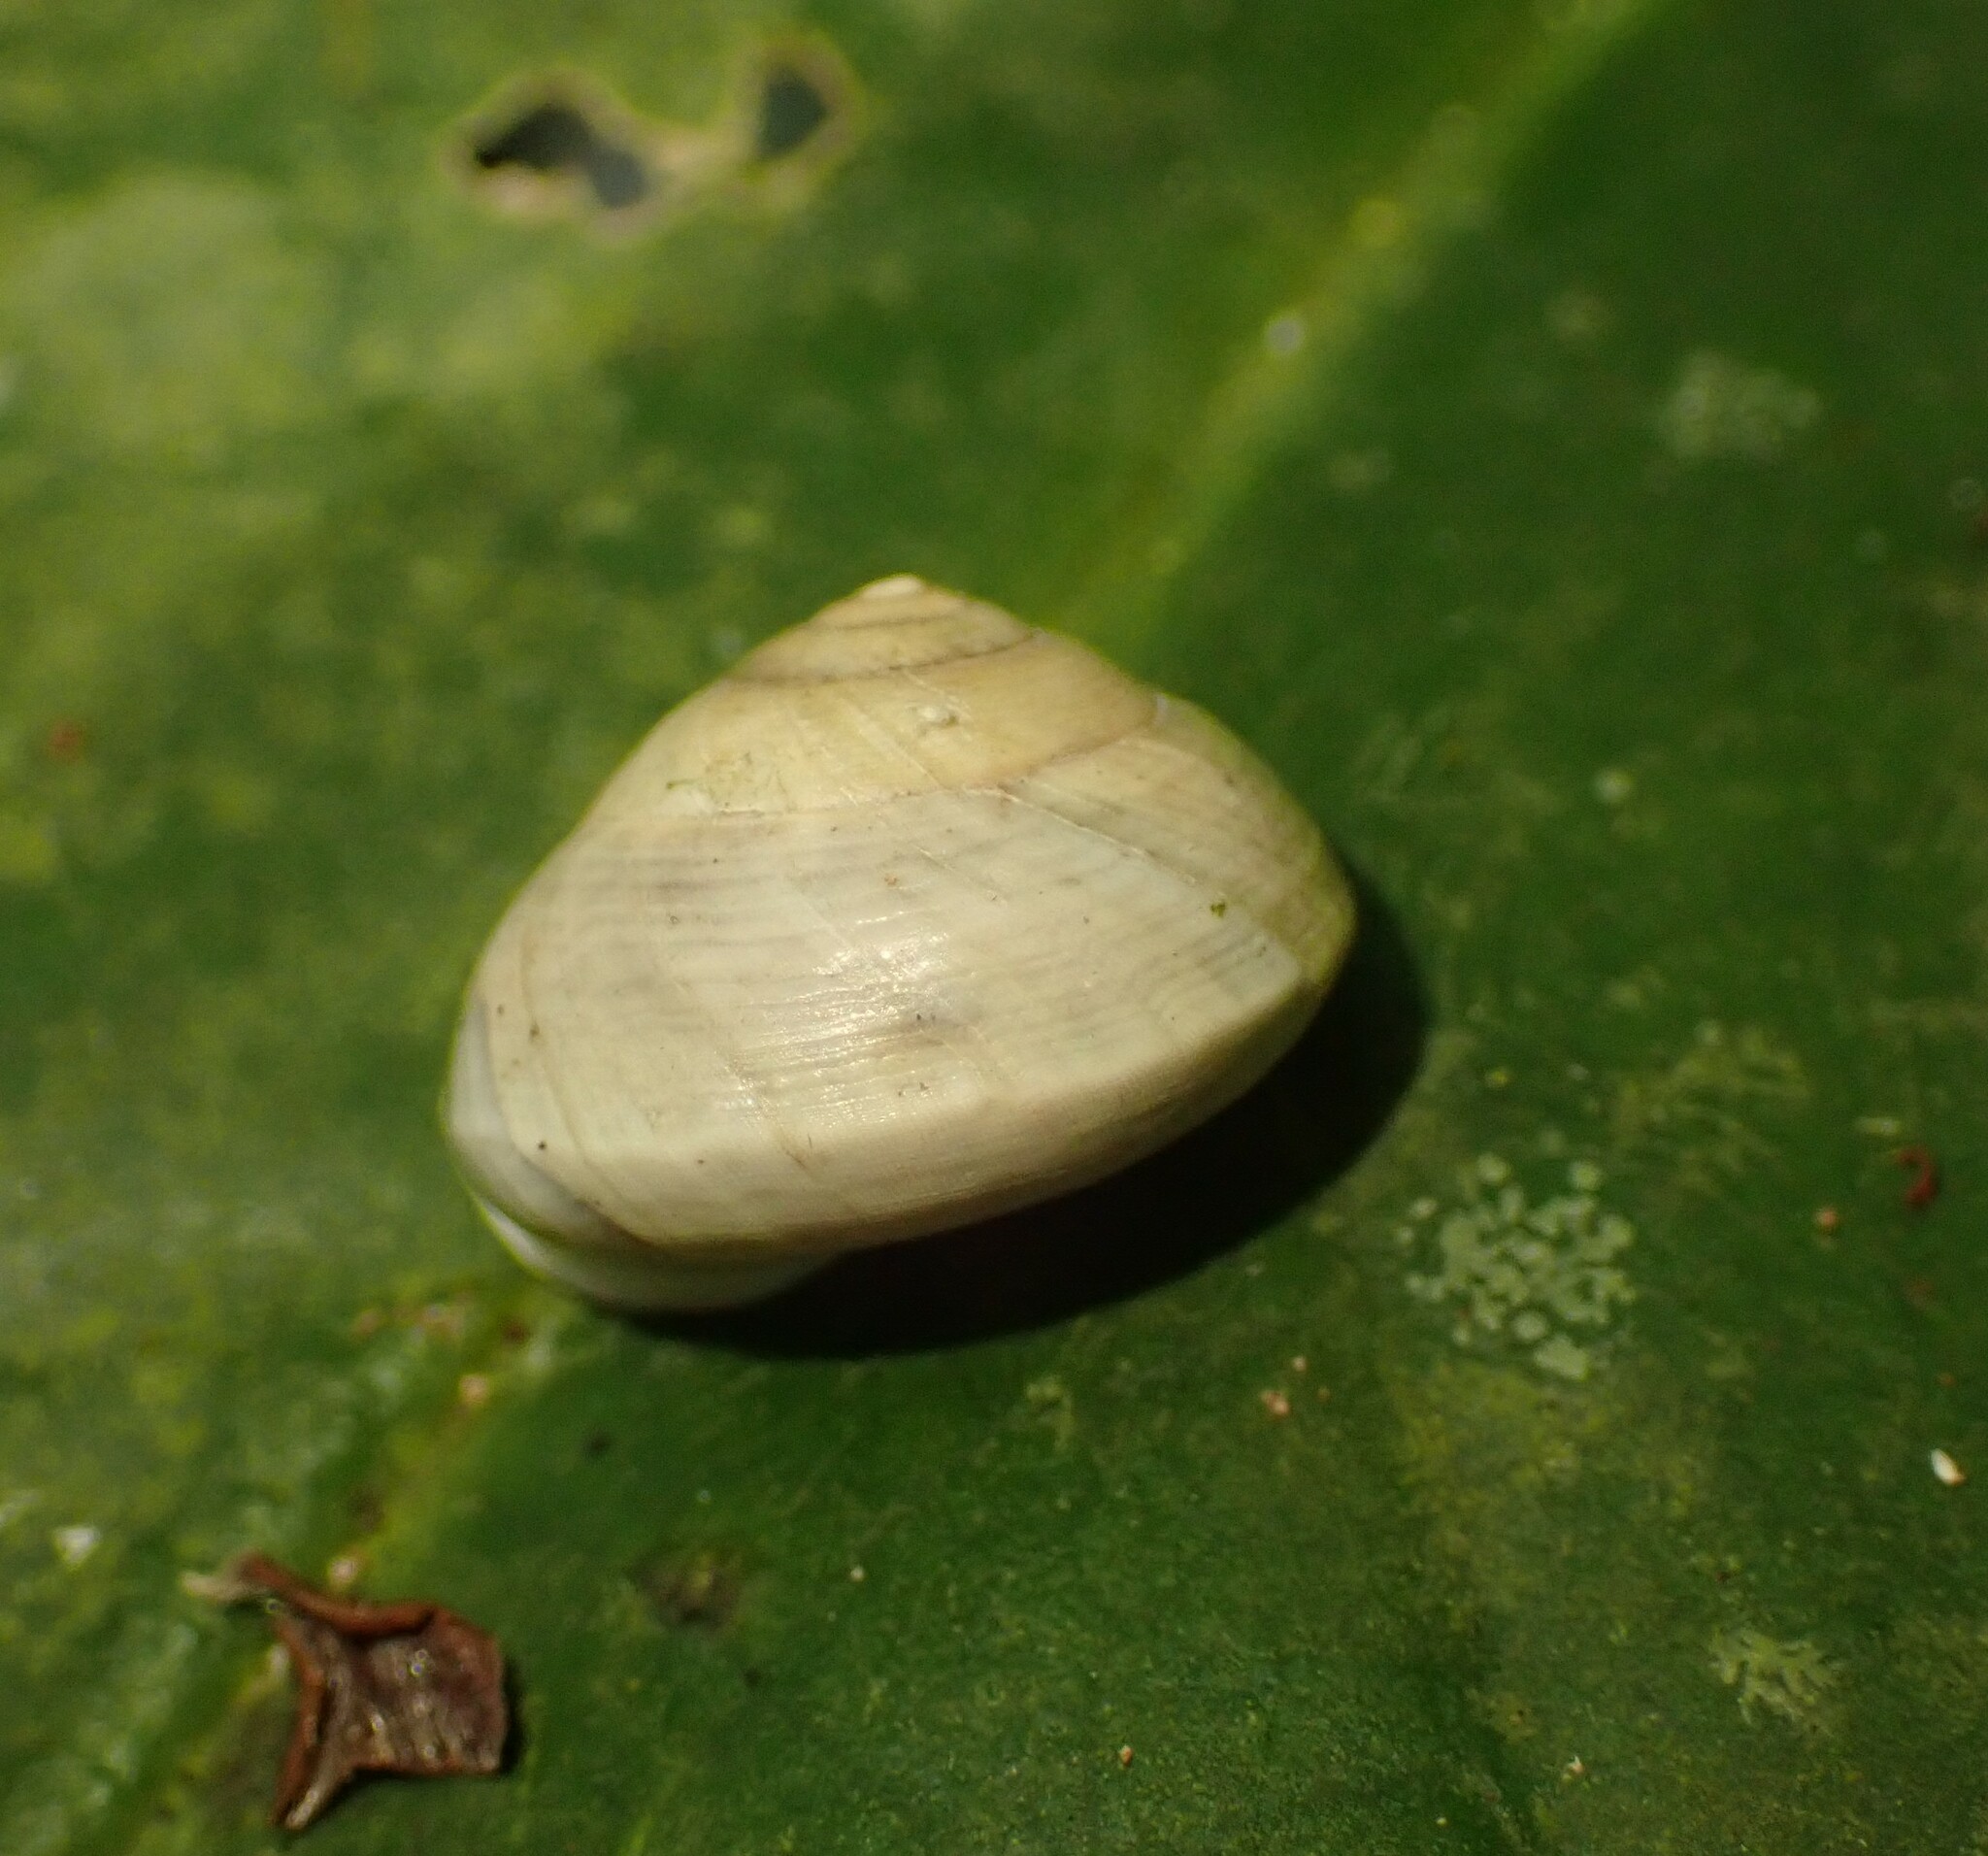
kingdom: Animalia
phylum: Mollusca
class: Gastropoda
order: Cycloneritida
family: Helicinidae
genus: Helicina
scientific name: Helicina oskari
